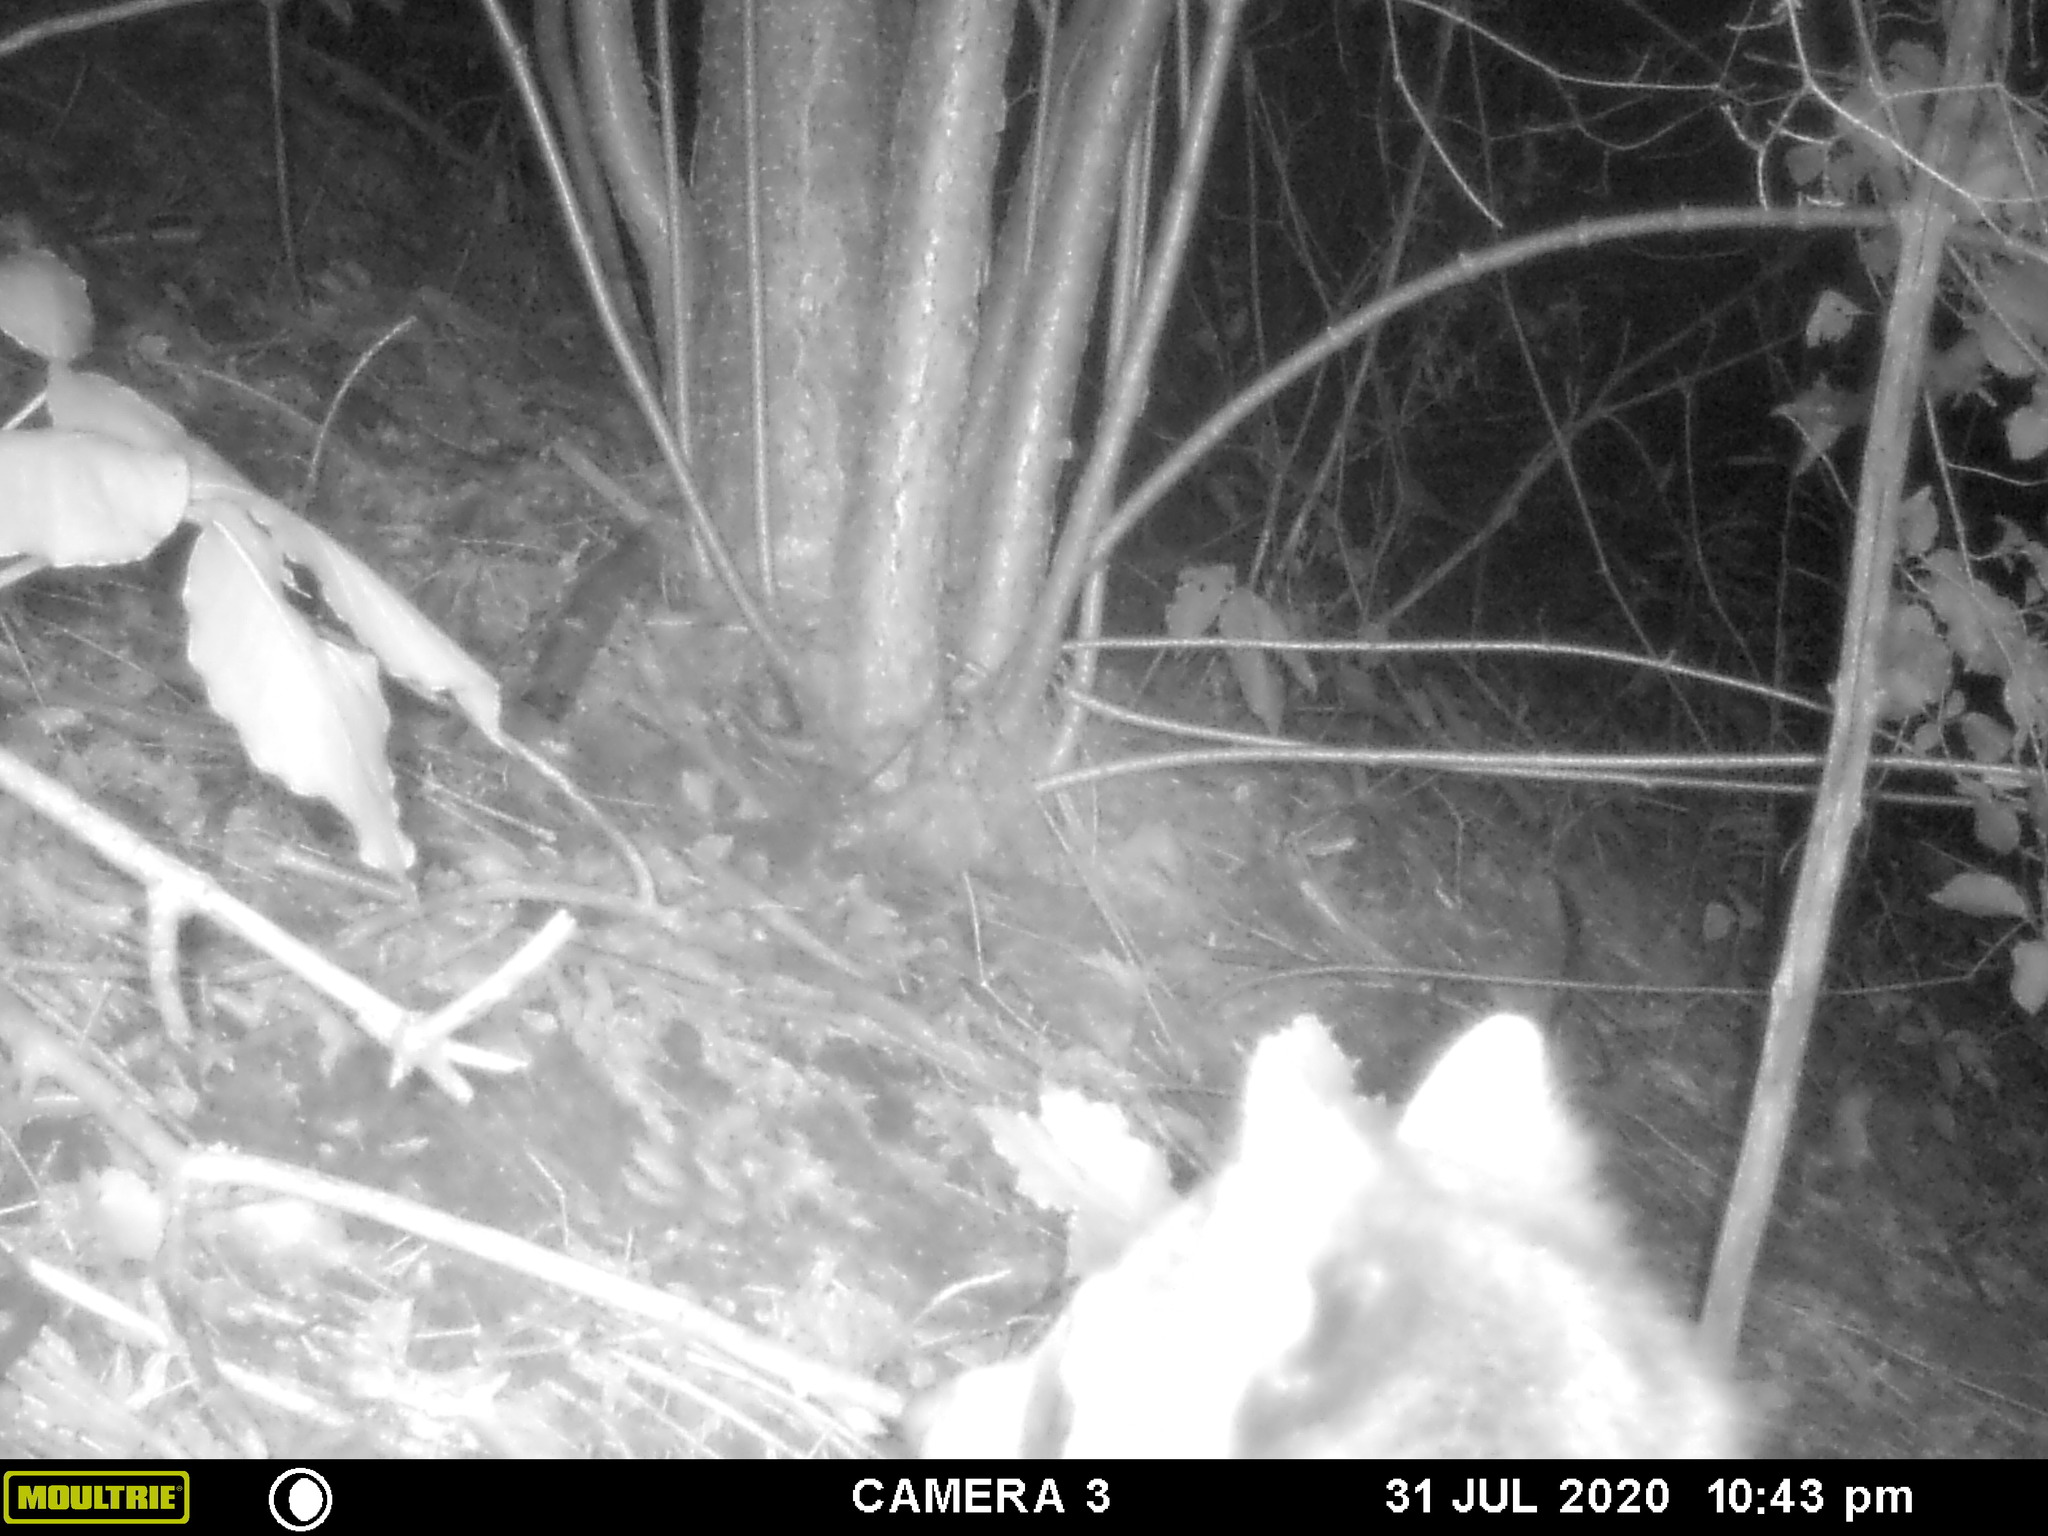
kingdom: Animalia
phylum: Chordata
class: Mammalia
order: Carnivora
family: Procyonidae
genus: Procyon
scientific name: Procyon lotor
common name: Raccoon
